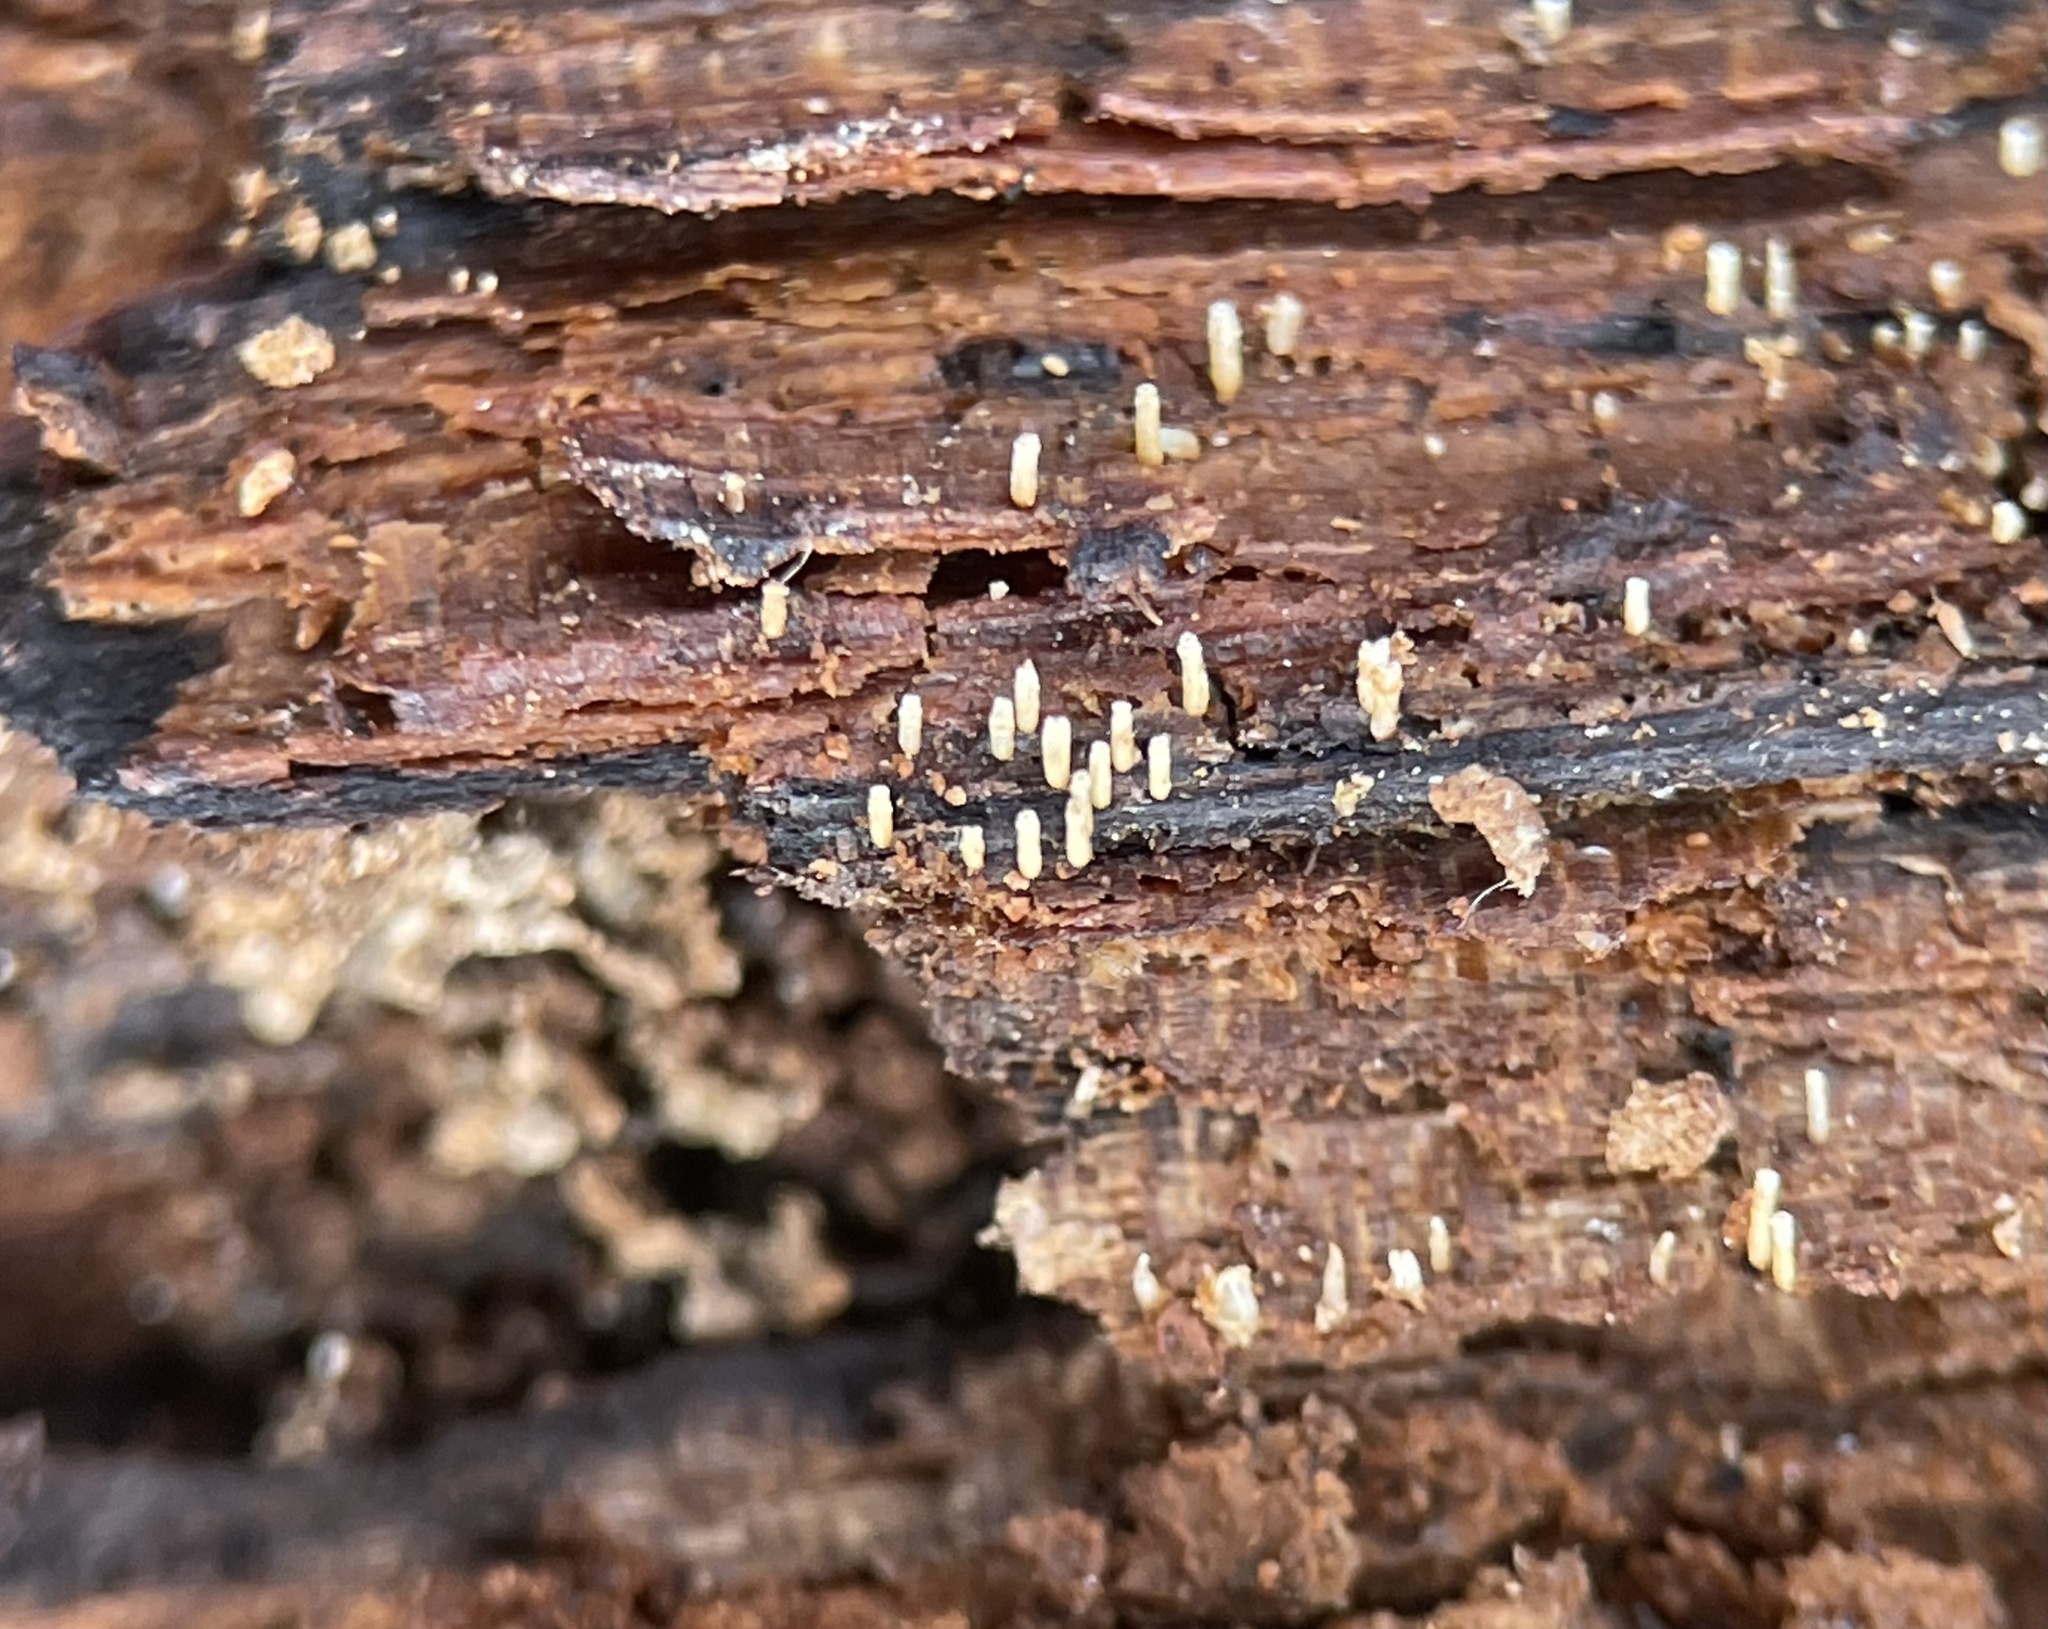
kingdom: Fungi
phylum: Basidiomycota
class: Agaricomycetes
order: Agaricales
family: Marasmiaceae
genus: Henningsomyces
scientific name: Henningsomyces candidus
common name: White tubelet
